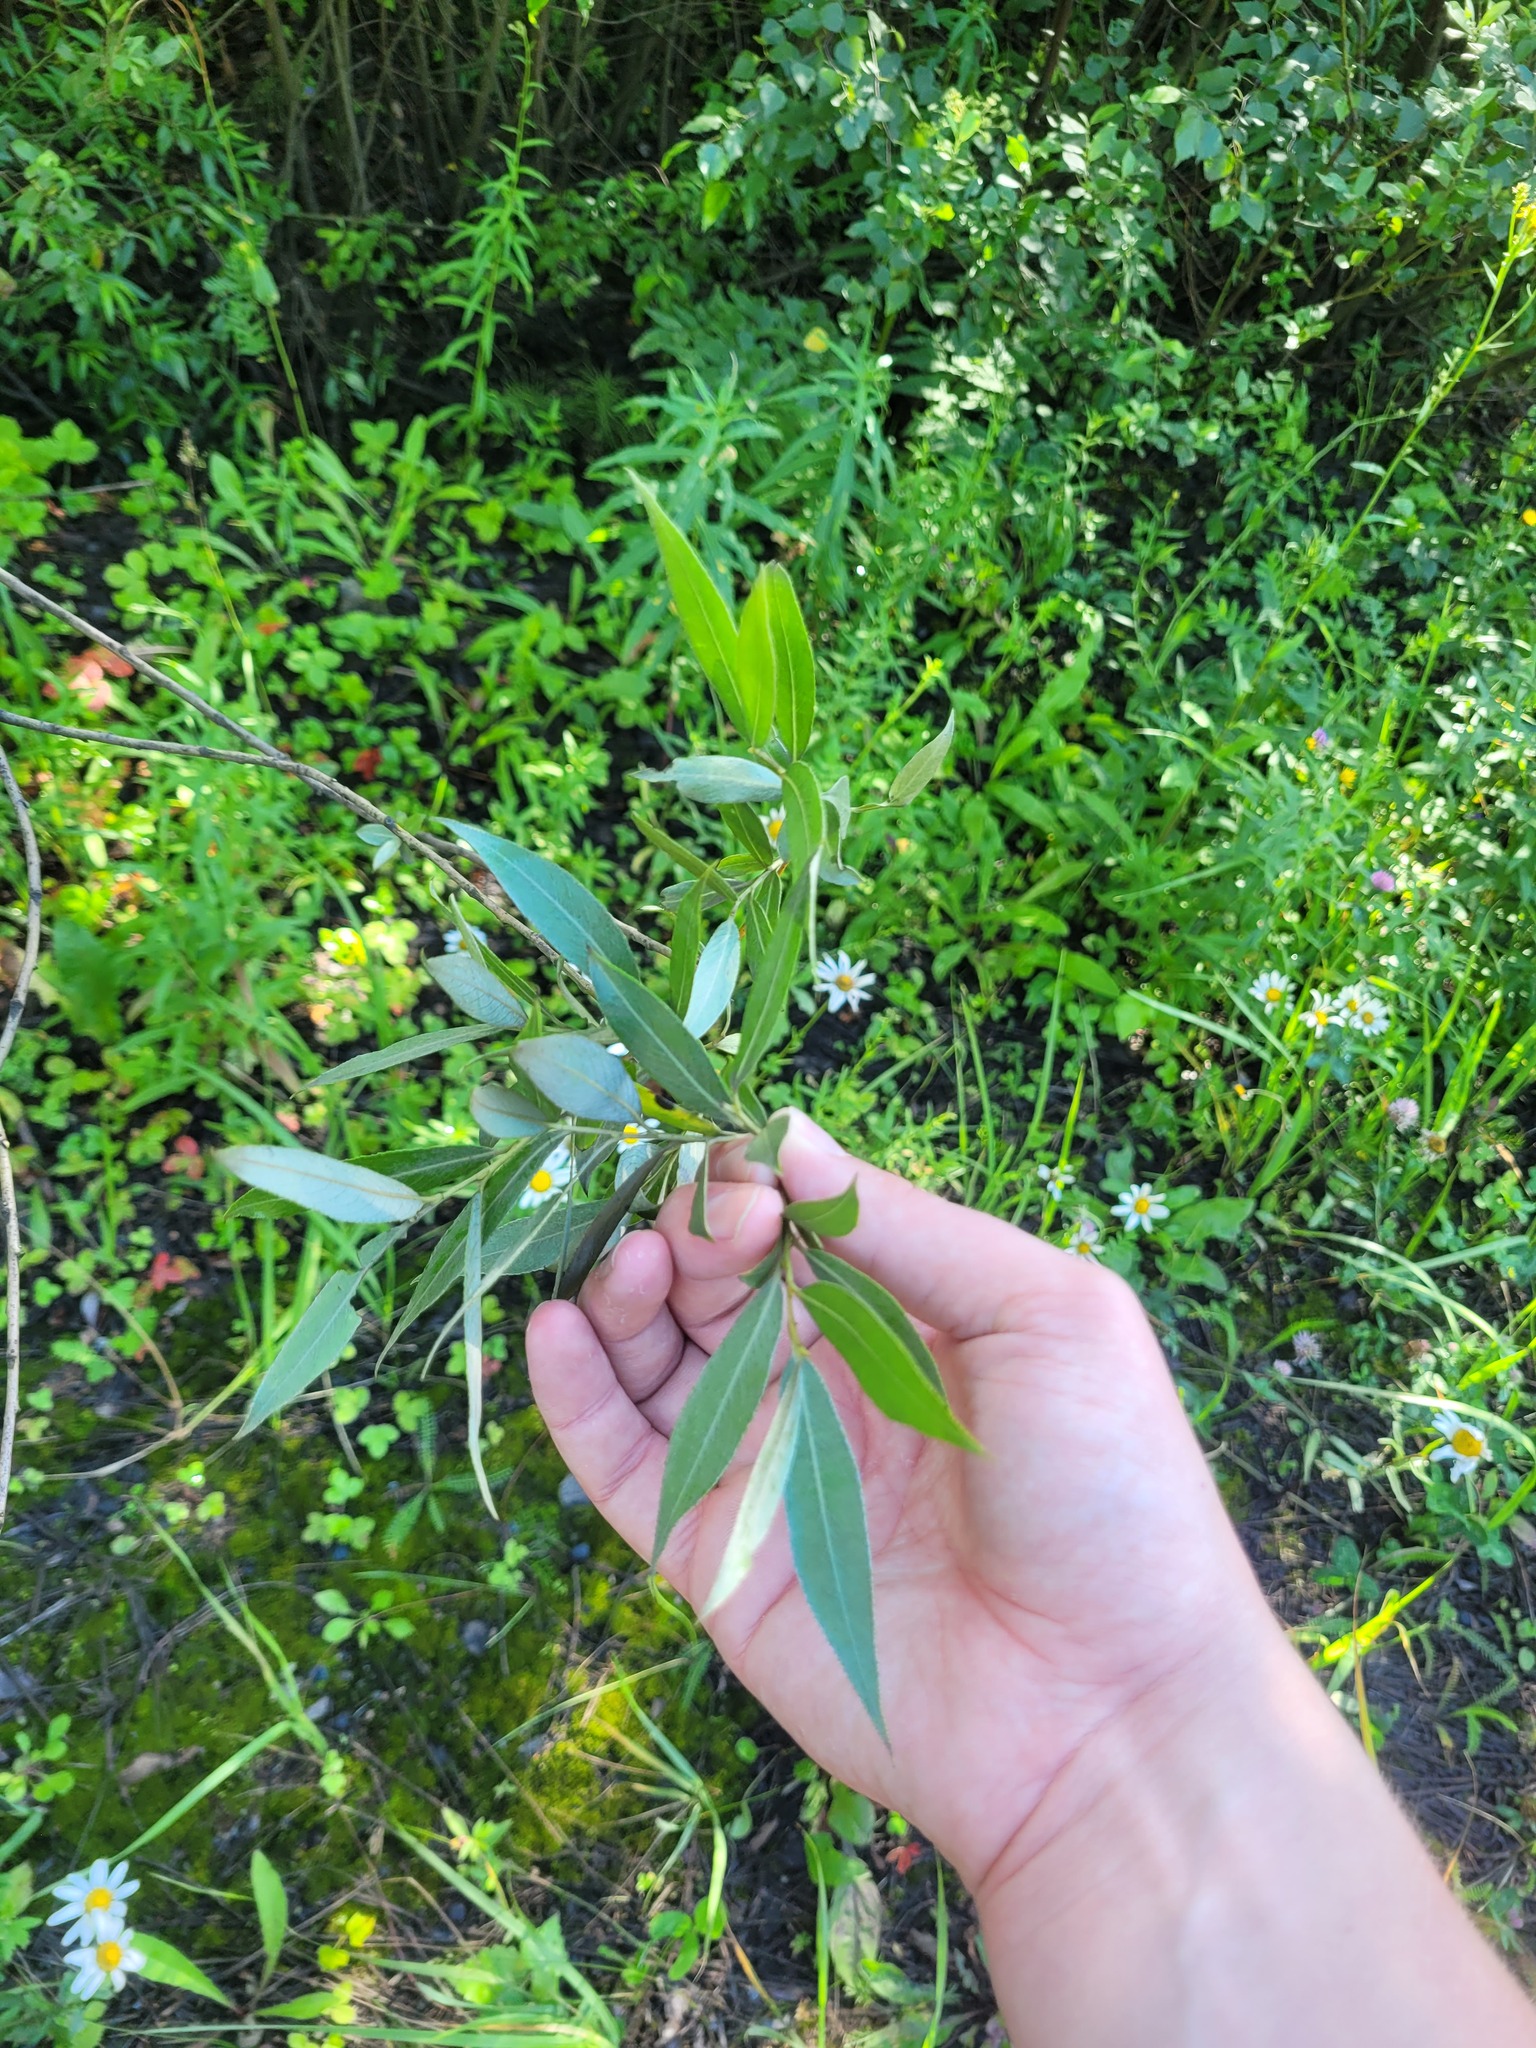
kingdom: Plantae
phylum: Tracheophyta
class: Magnoliopsida
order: Malpighiales
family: Salicaceae
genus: Salix
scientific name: Salix alba
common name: White willow
